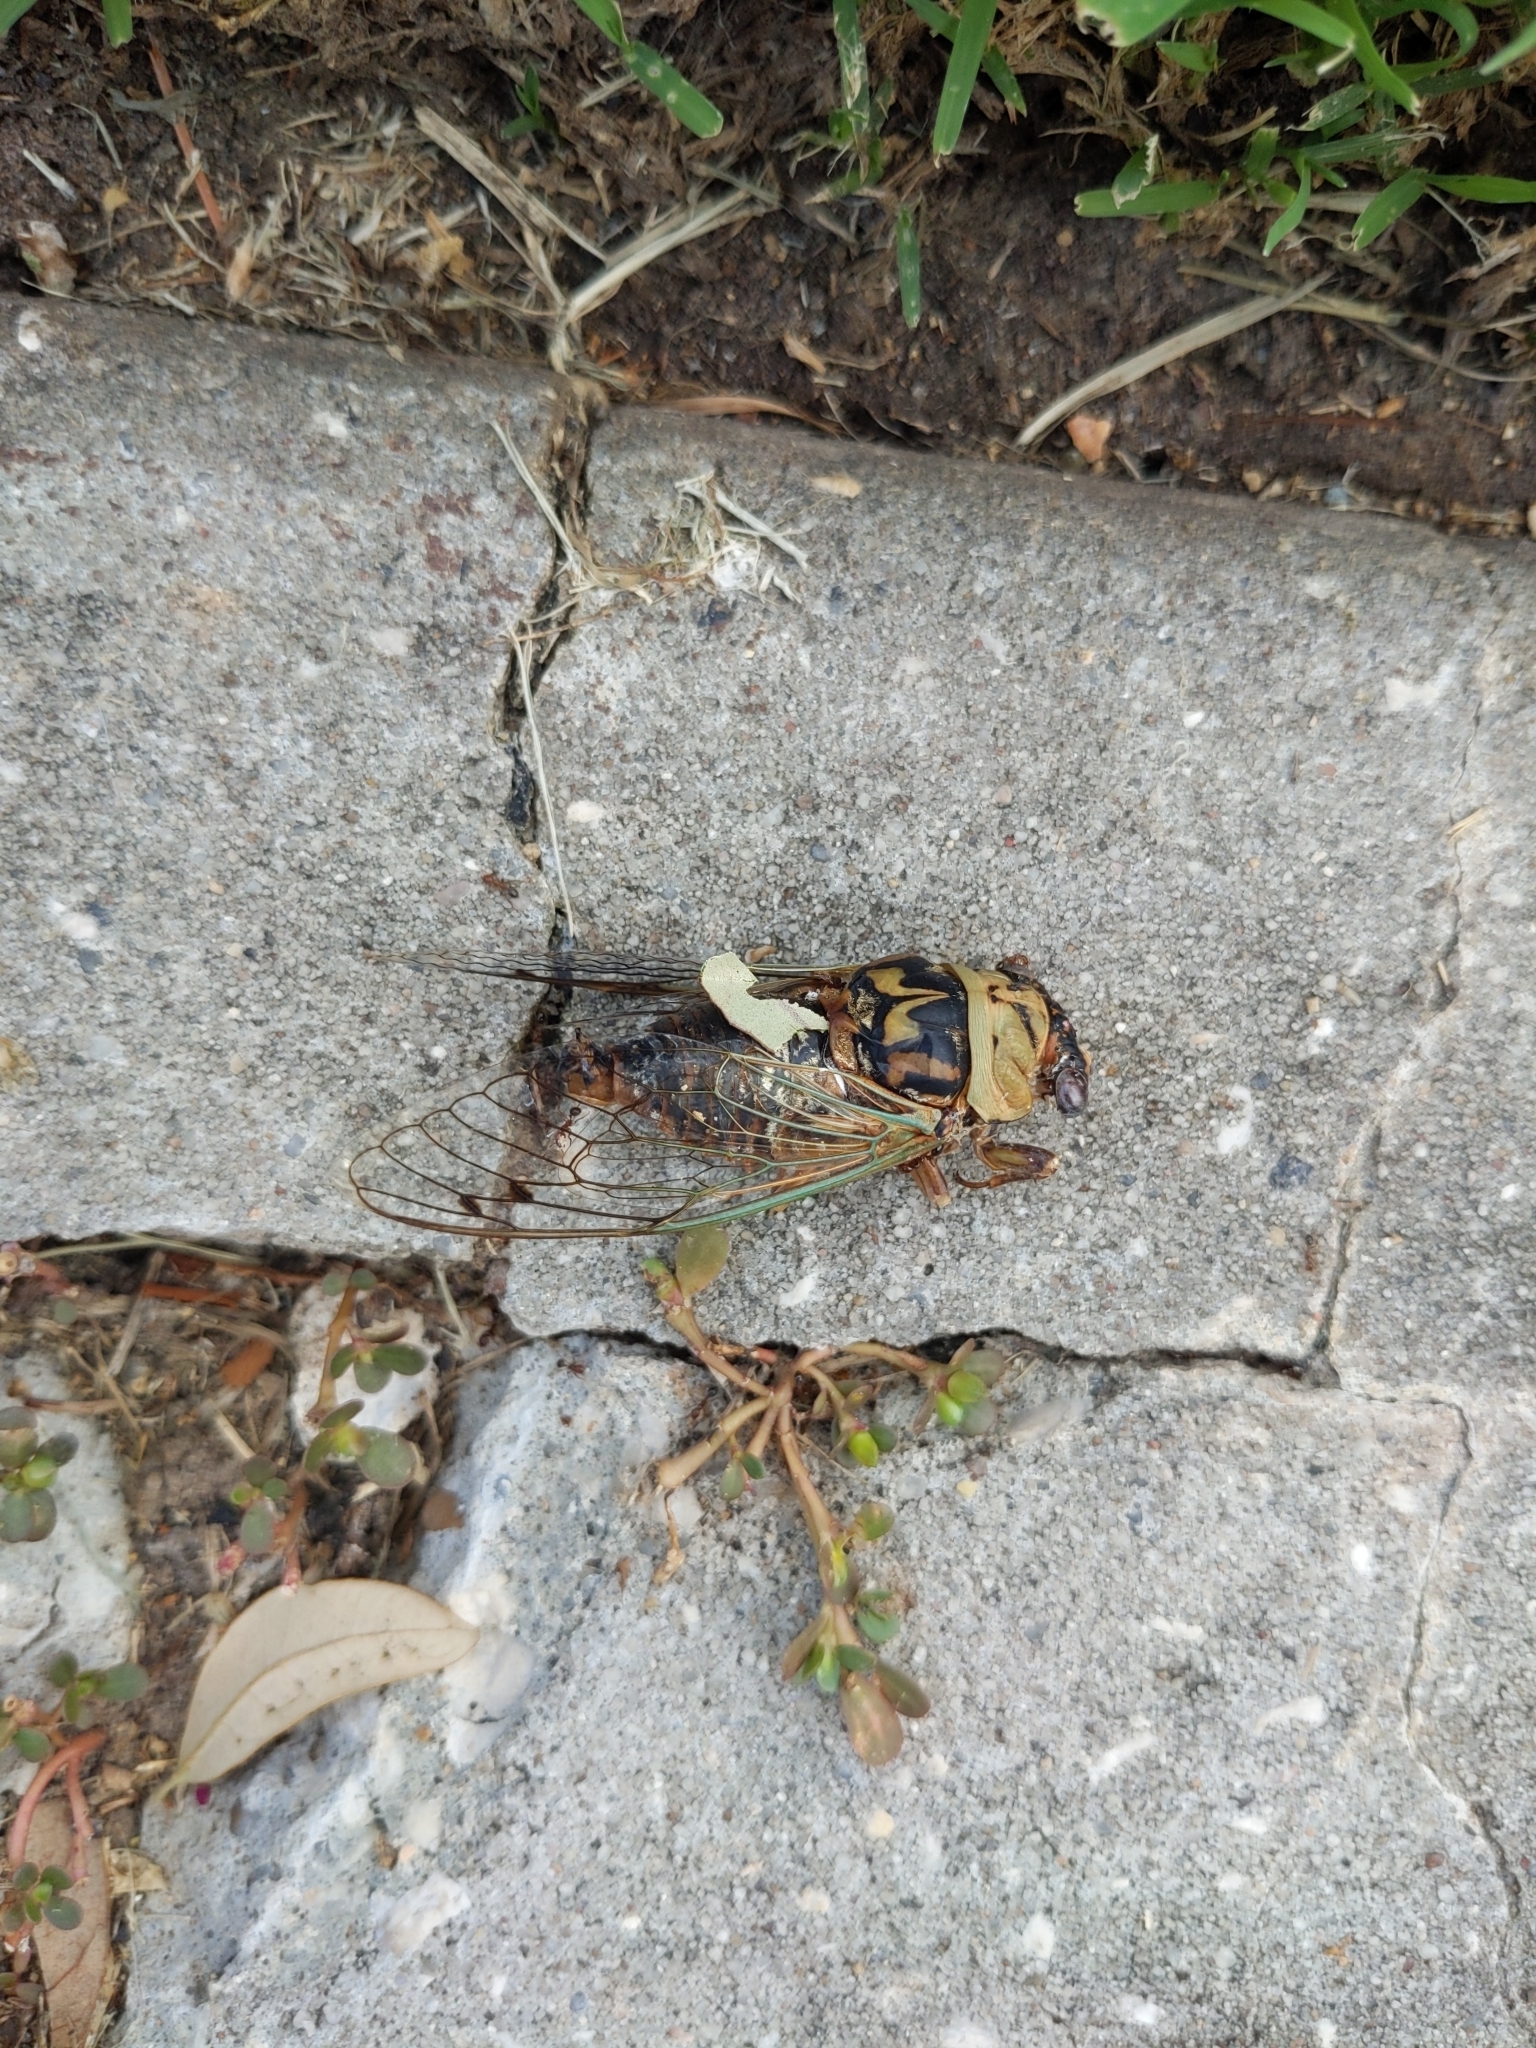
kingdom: Animalia
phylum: Arthropoda
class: Insecta
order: Hemiptera
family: Cicadidae
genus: Megatibicen
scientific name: Megatibicen resh
